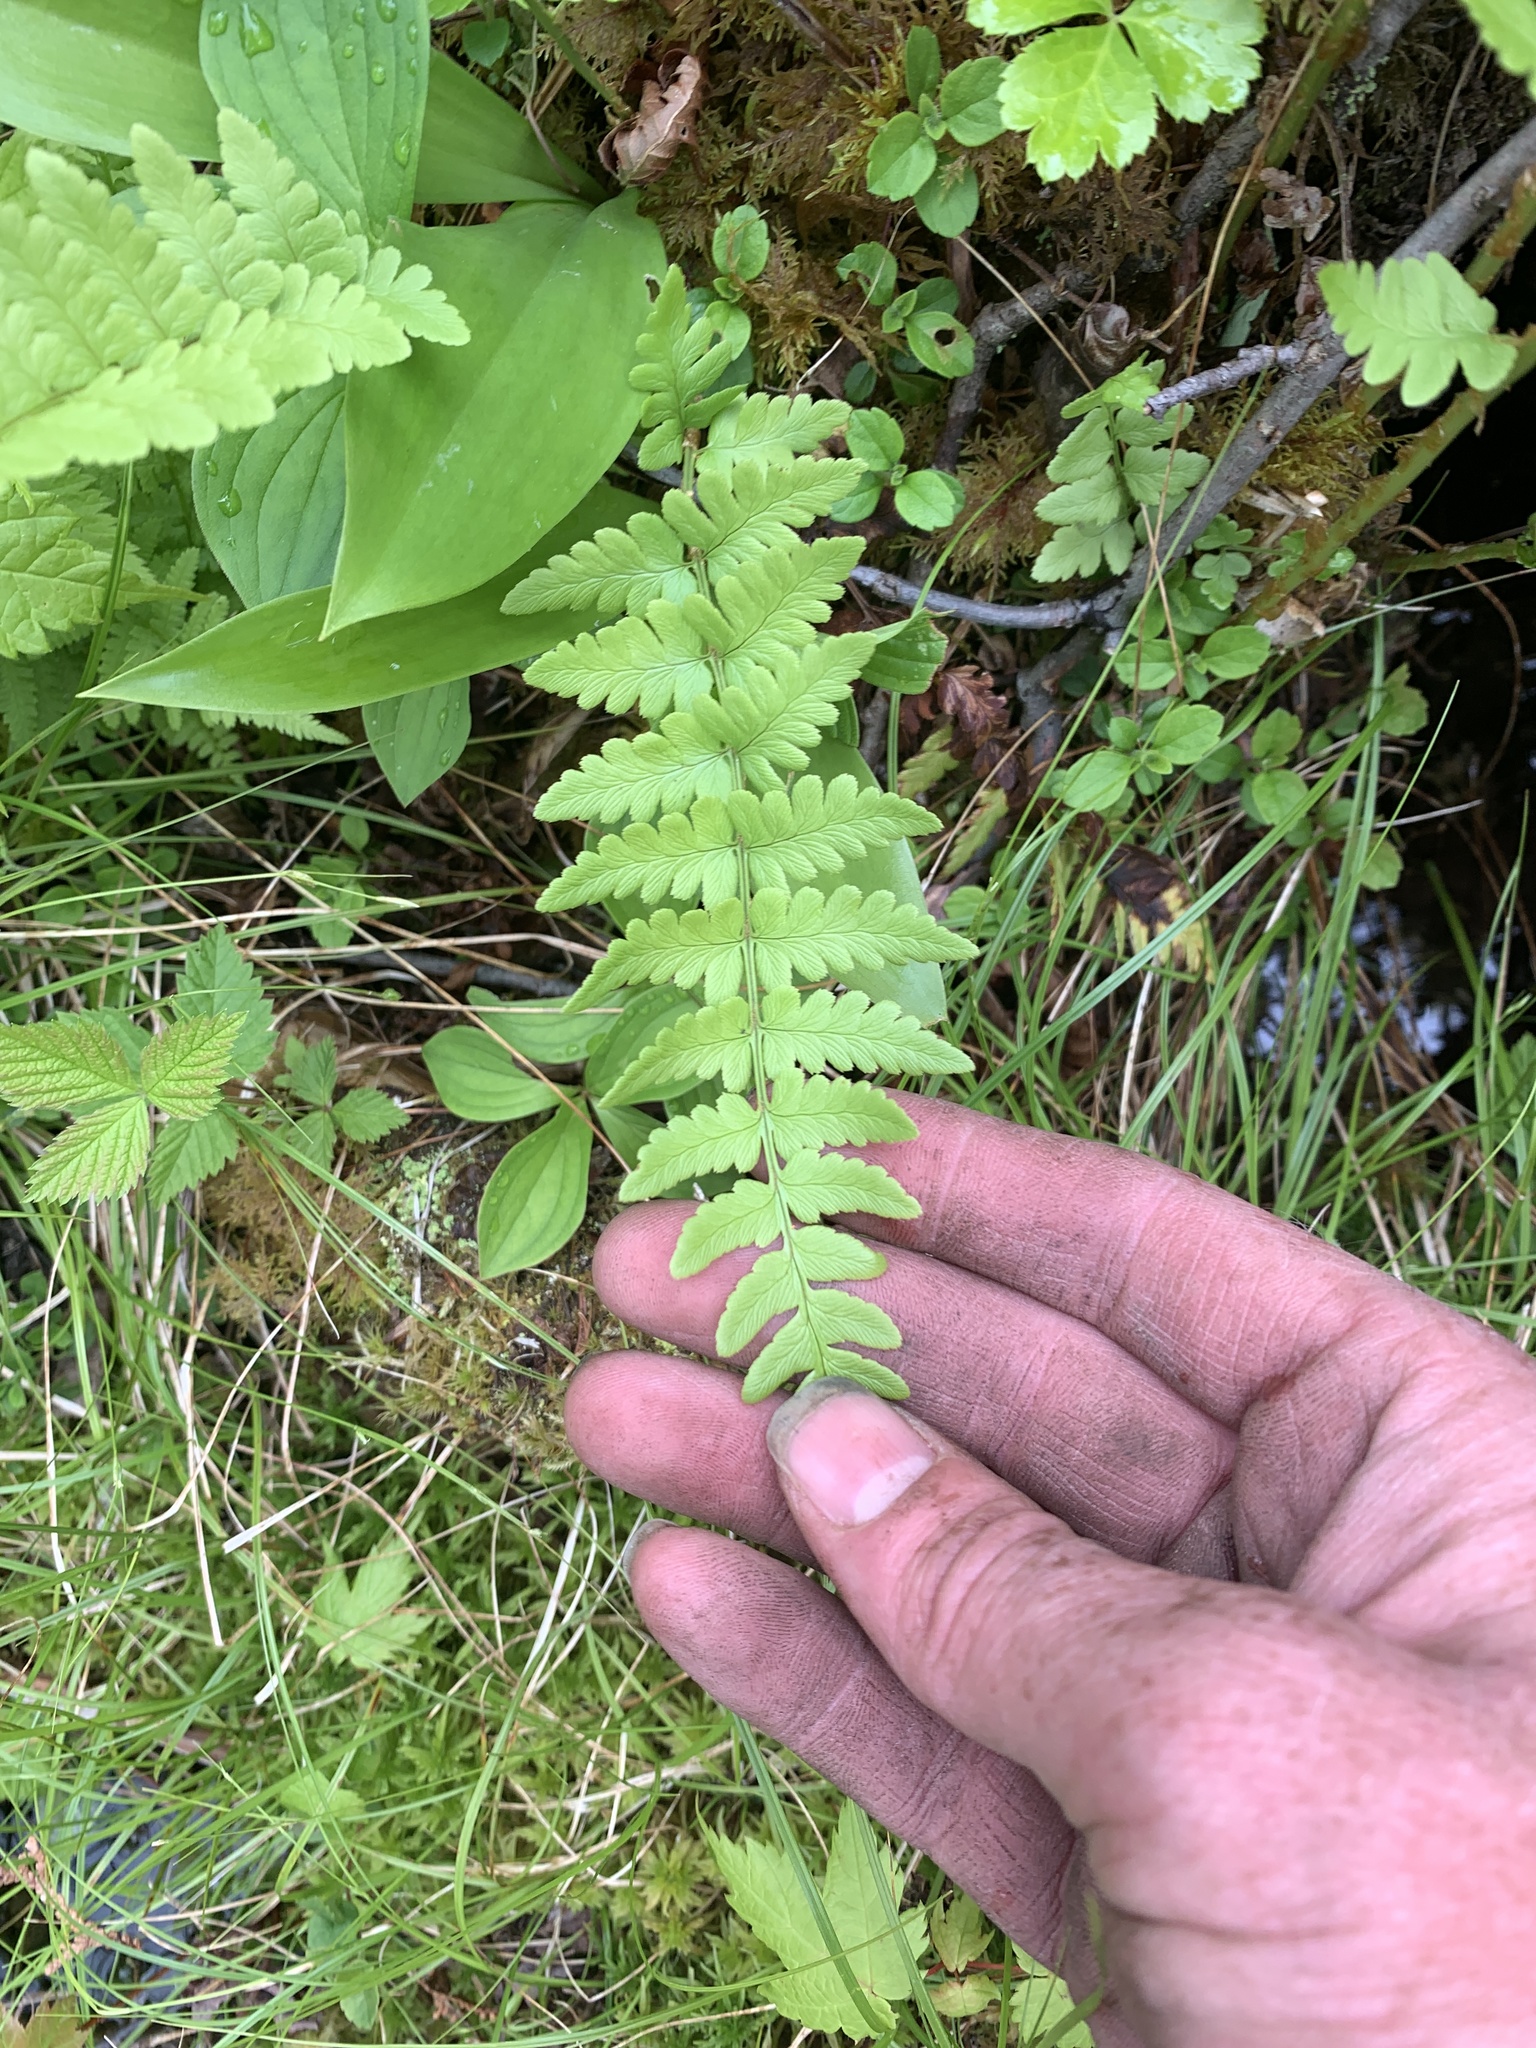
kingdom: Plantae
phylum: Tracheophyta
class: Polypodiopsida
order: Polypodiales
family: Dryopteridaceae
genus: Dryopteris
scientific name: Dryopteris cristata
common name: Crested wood fern
